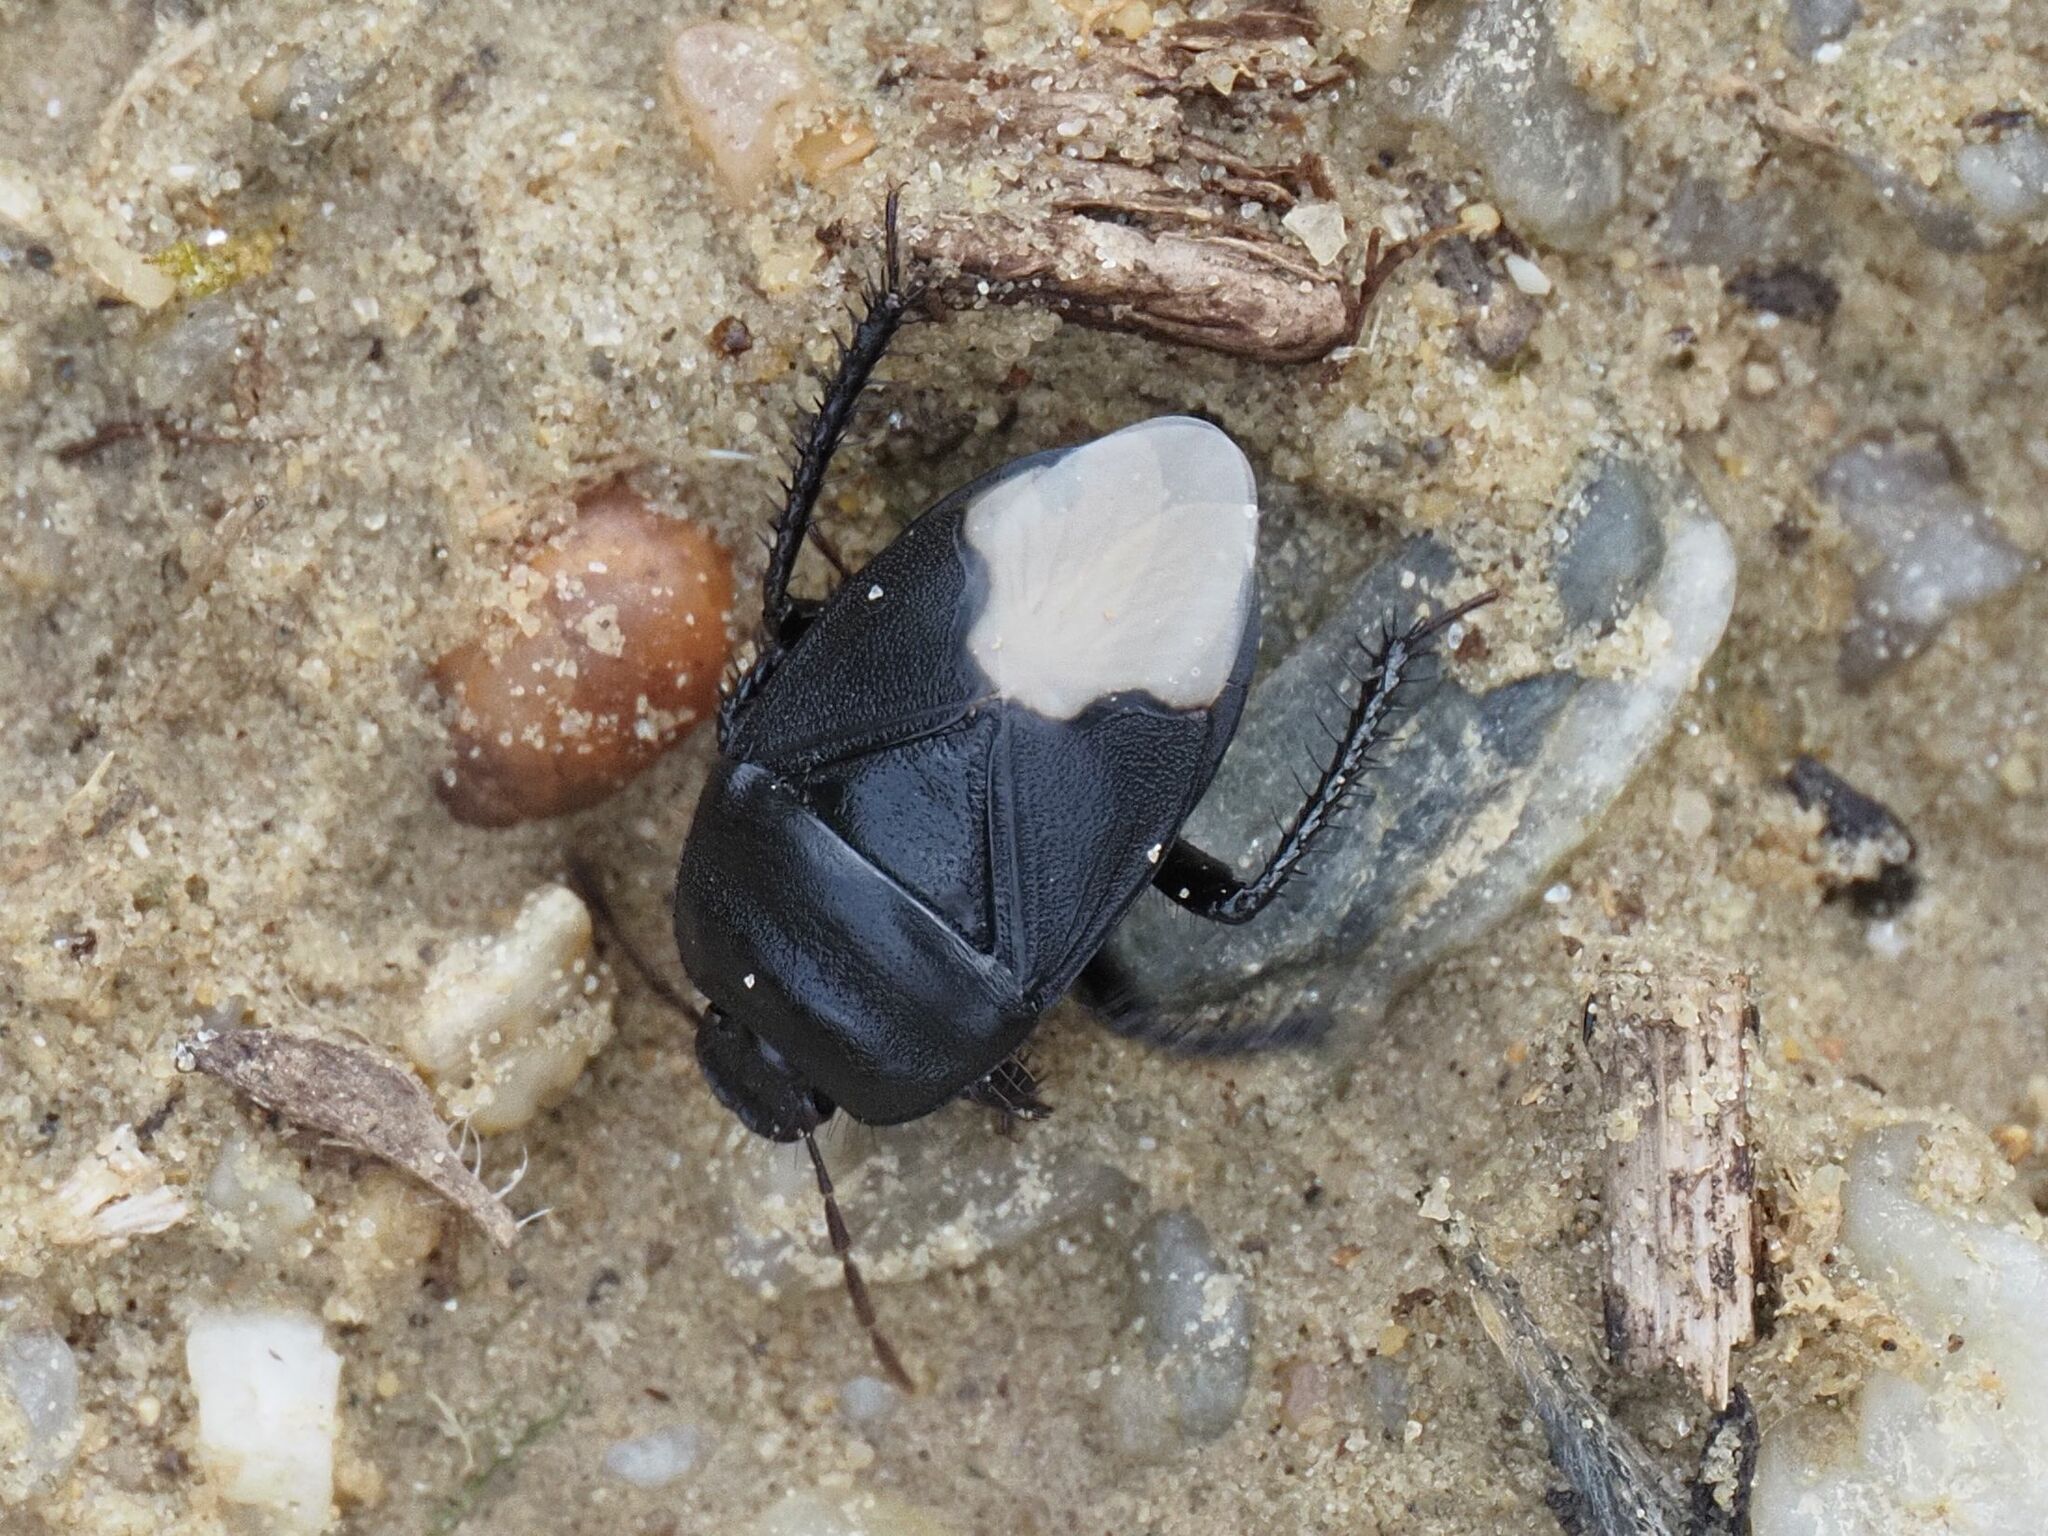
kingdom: Animalia
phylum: Arthropoda
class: Insecta
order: Hemiptera
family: Cydnidae
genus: Cydnus
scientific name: Cydnus aterrimus
